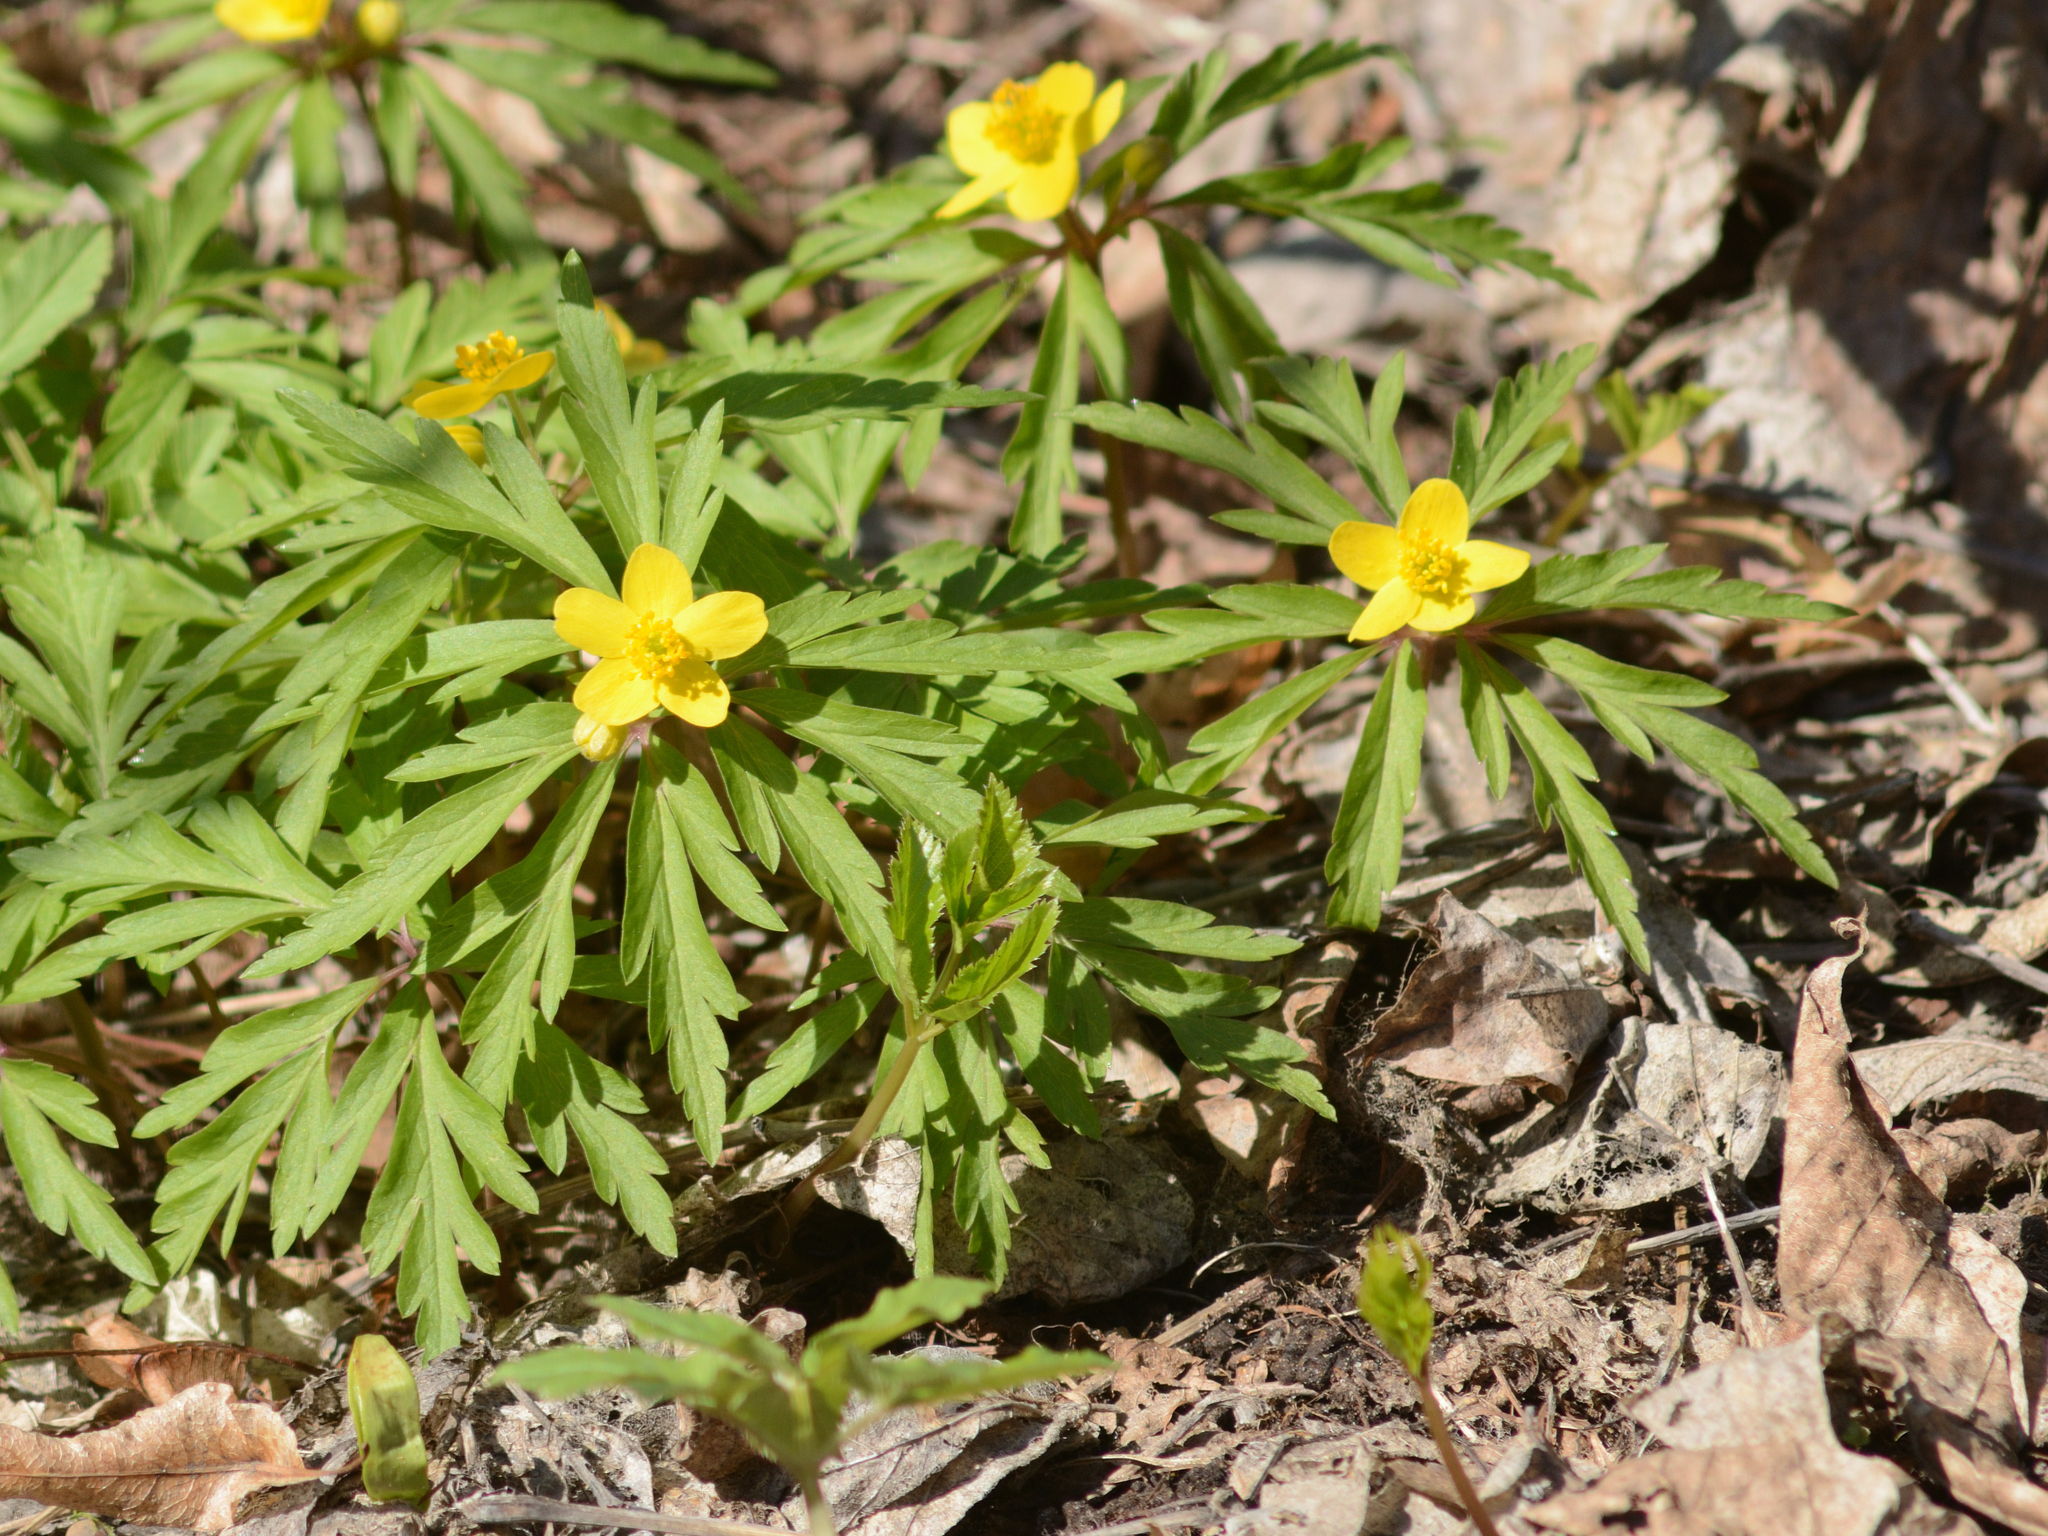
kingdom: Plantae
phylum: Tracheophyta
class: Magnoliopsida
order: Ranunculales
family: Ranunculaceae
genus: Anemone
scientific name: Anemone ranunculoides
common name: Yellow anemone
